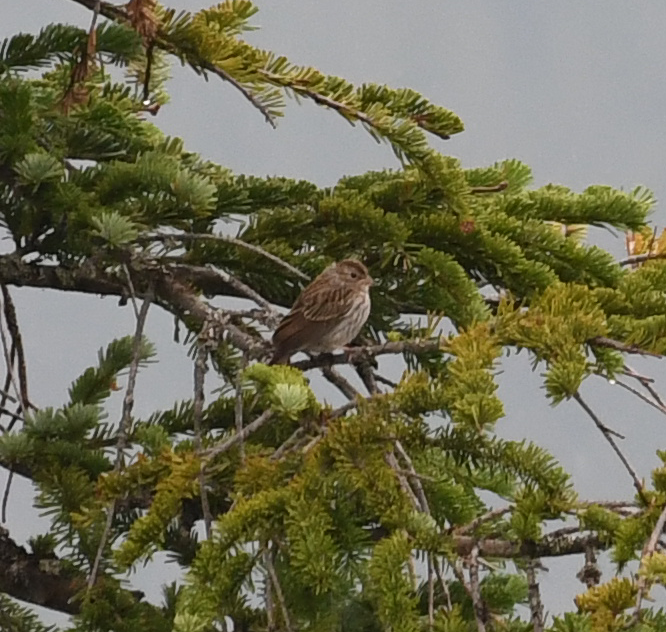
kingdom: Animalia
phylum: Chordata
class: Aves
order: Passeriformes
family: Passerellidae
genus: Spizella
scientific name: Spizella passerina
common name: Chipping sparrow
